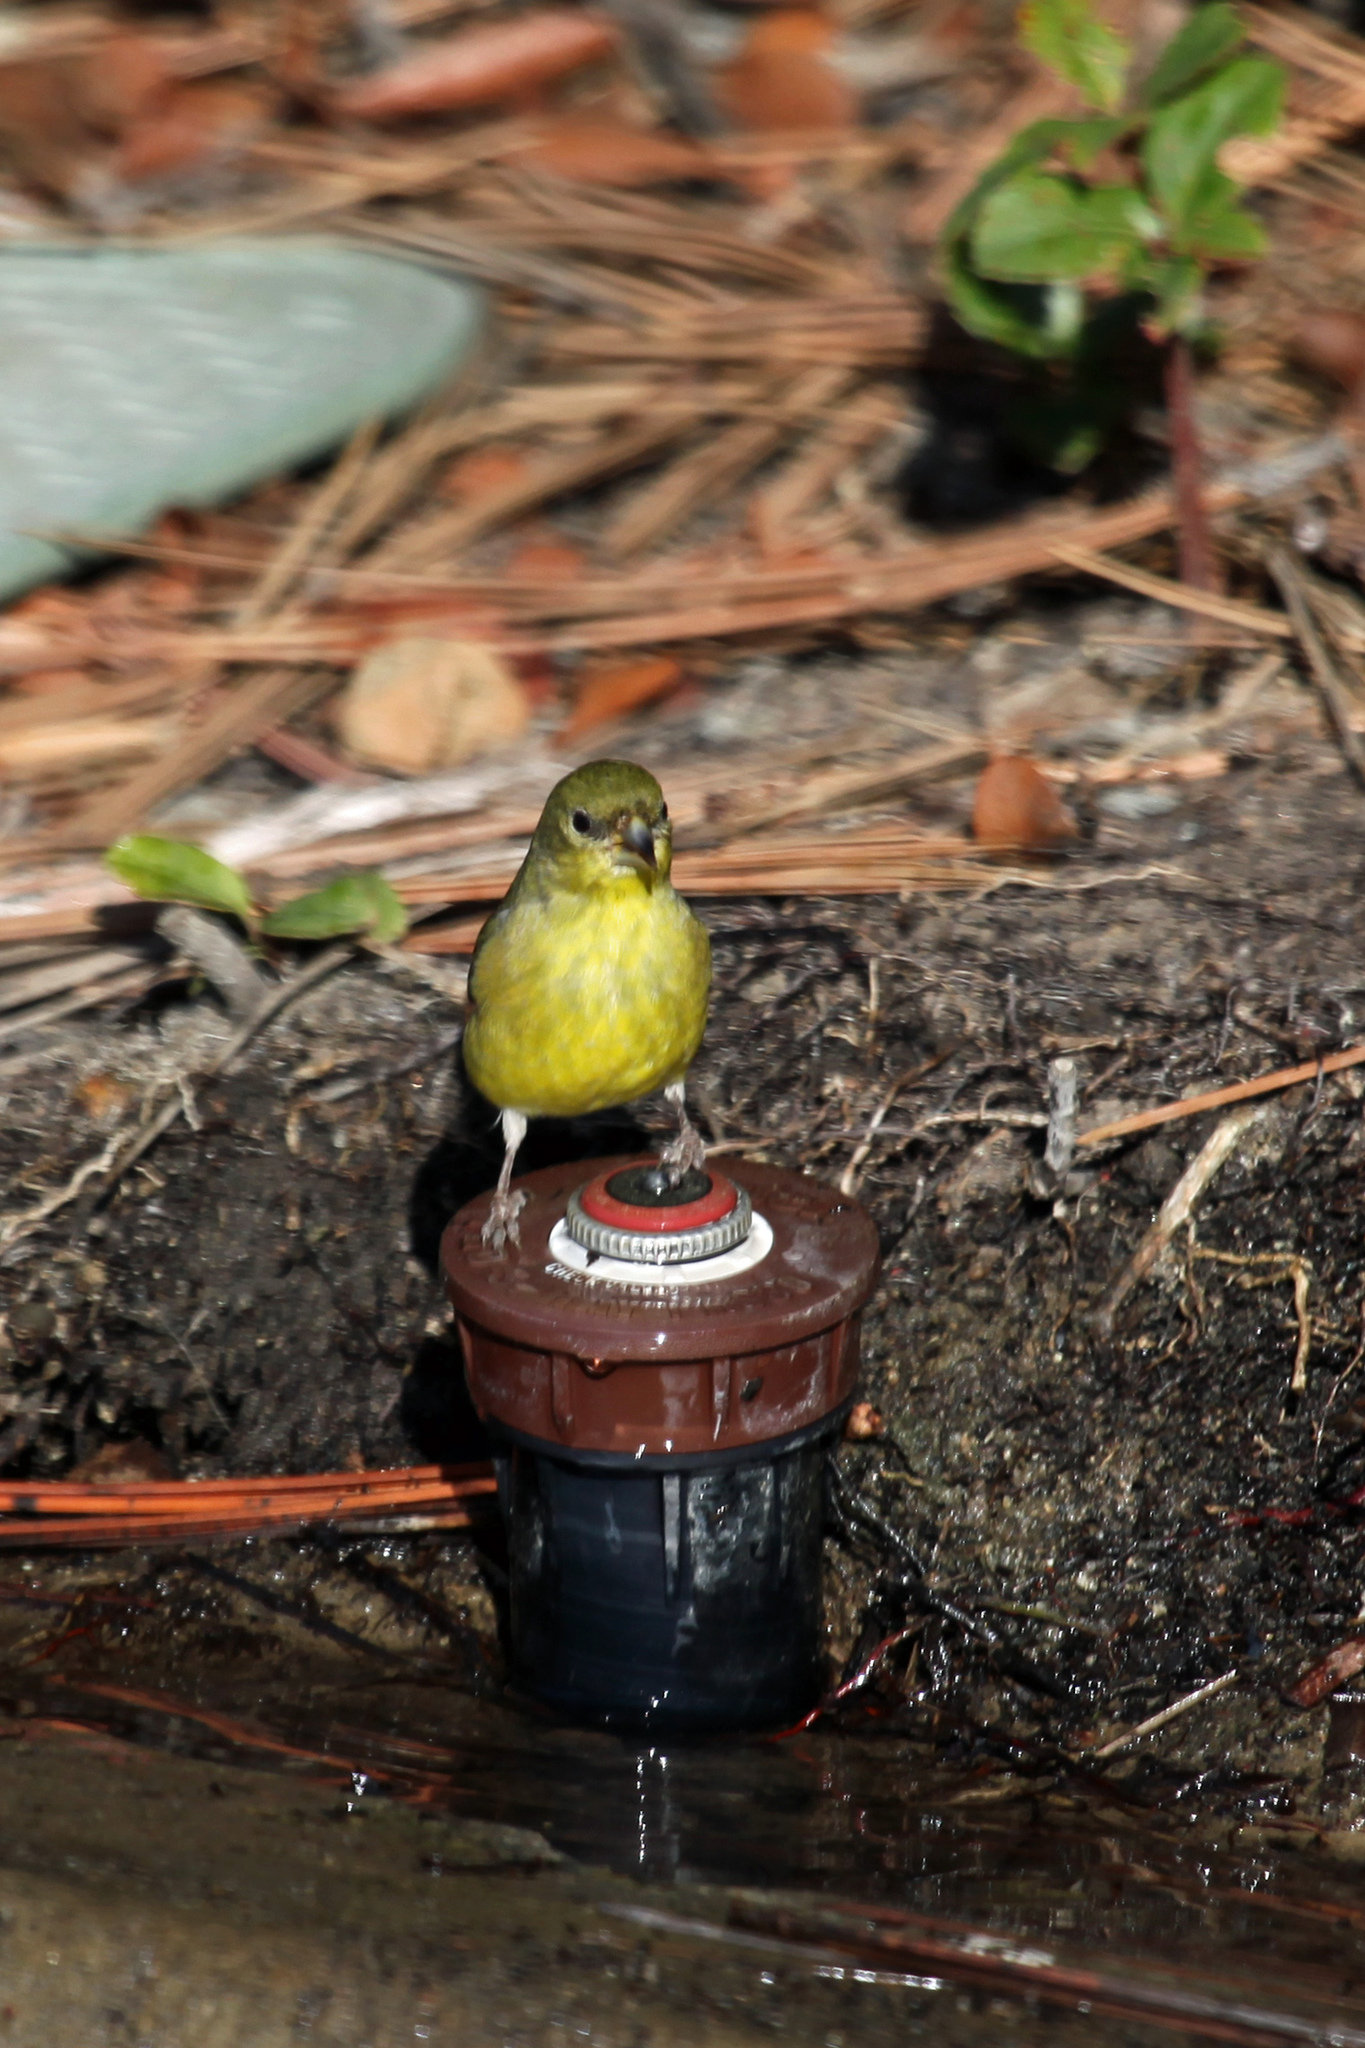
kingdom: Animalia
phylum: Chordata
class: Aves
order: Passeriformes
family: Fringillidae
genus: Spinus
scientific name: Spinus psaltria
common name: Lesser goldfinch
